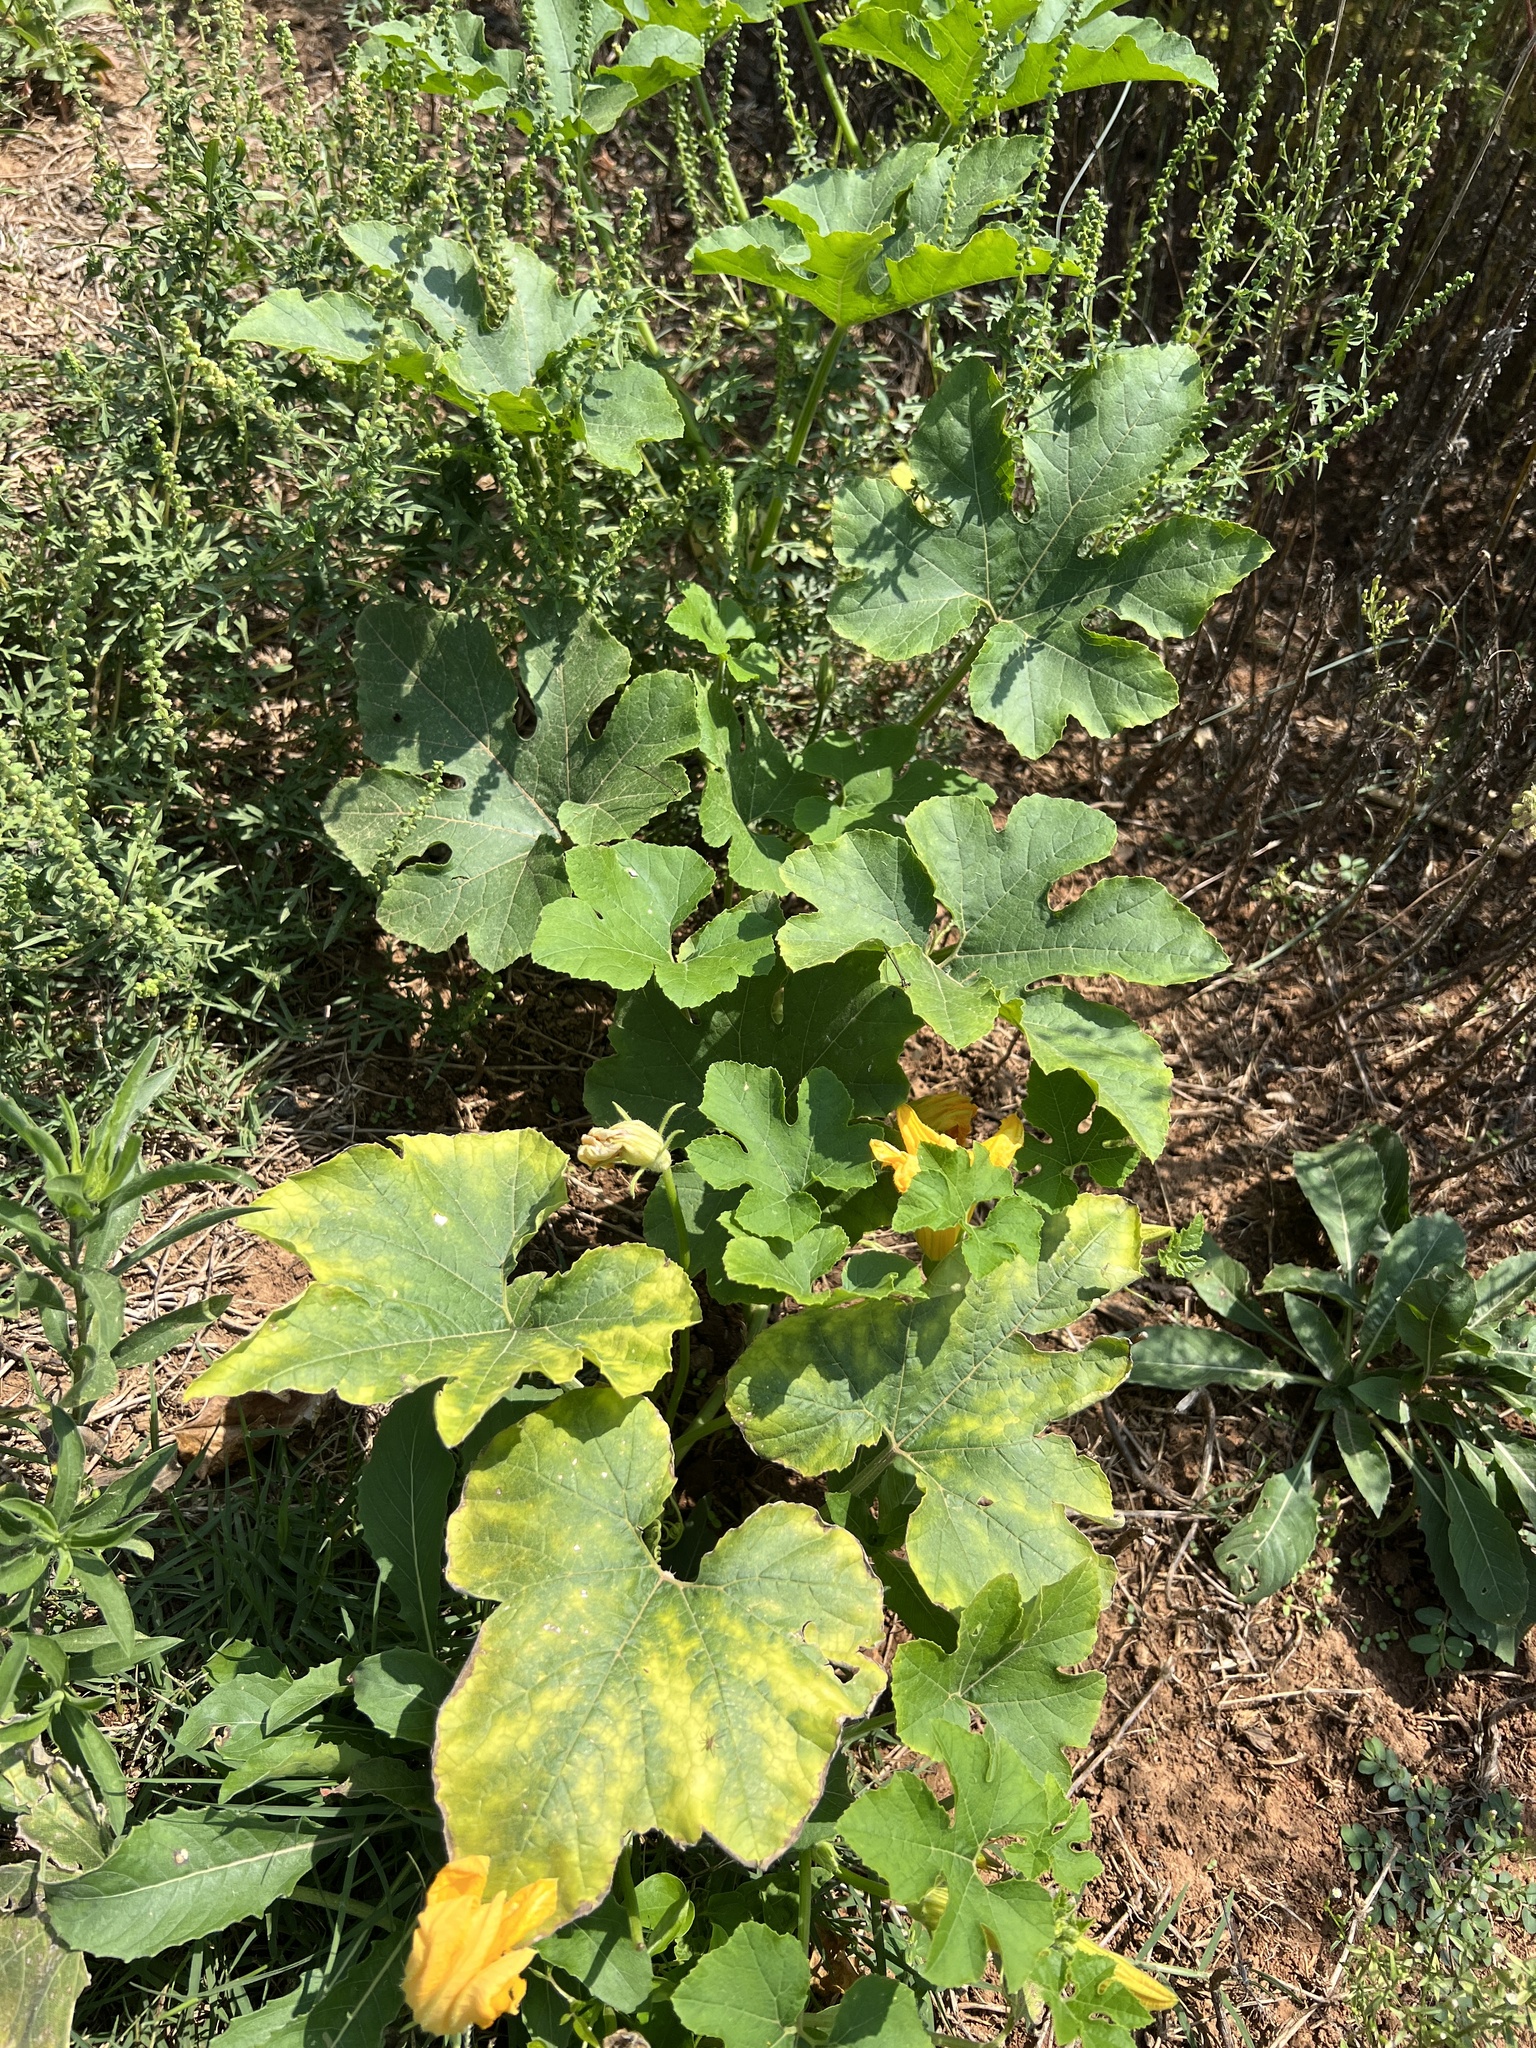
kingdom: Plantae
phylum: Tracheophyta
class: Magnoliopsida
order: Cucurbitales
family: Cucurbitaceae
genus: Cucurbita
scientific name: Cucurbita pepo
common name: Marrow
